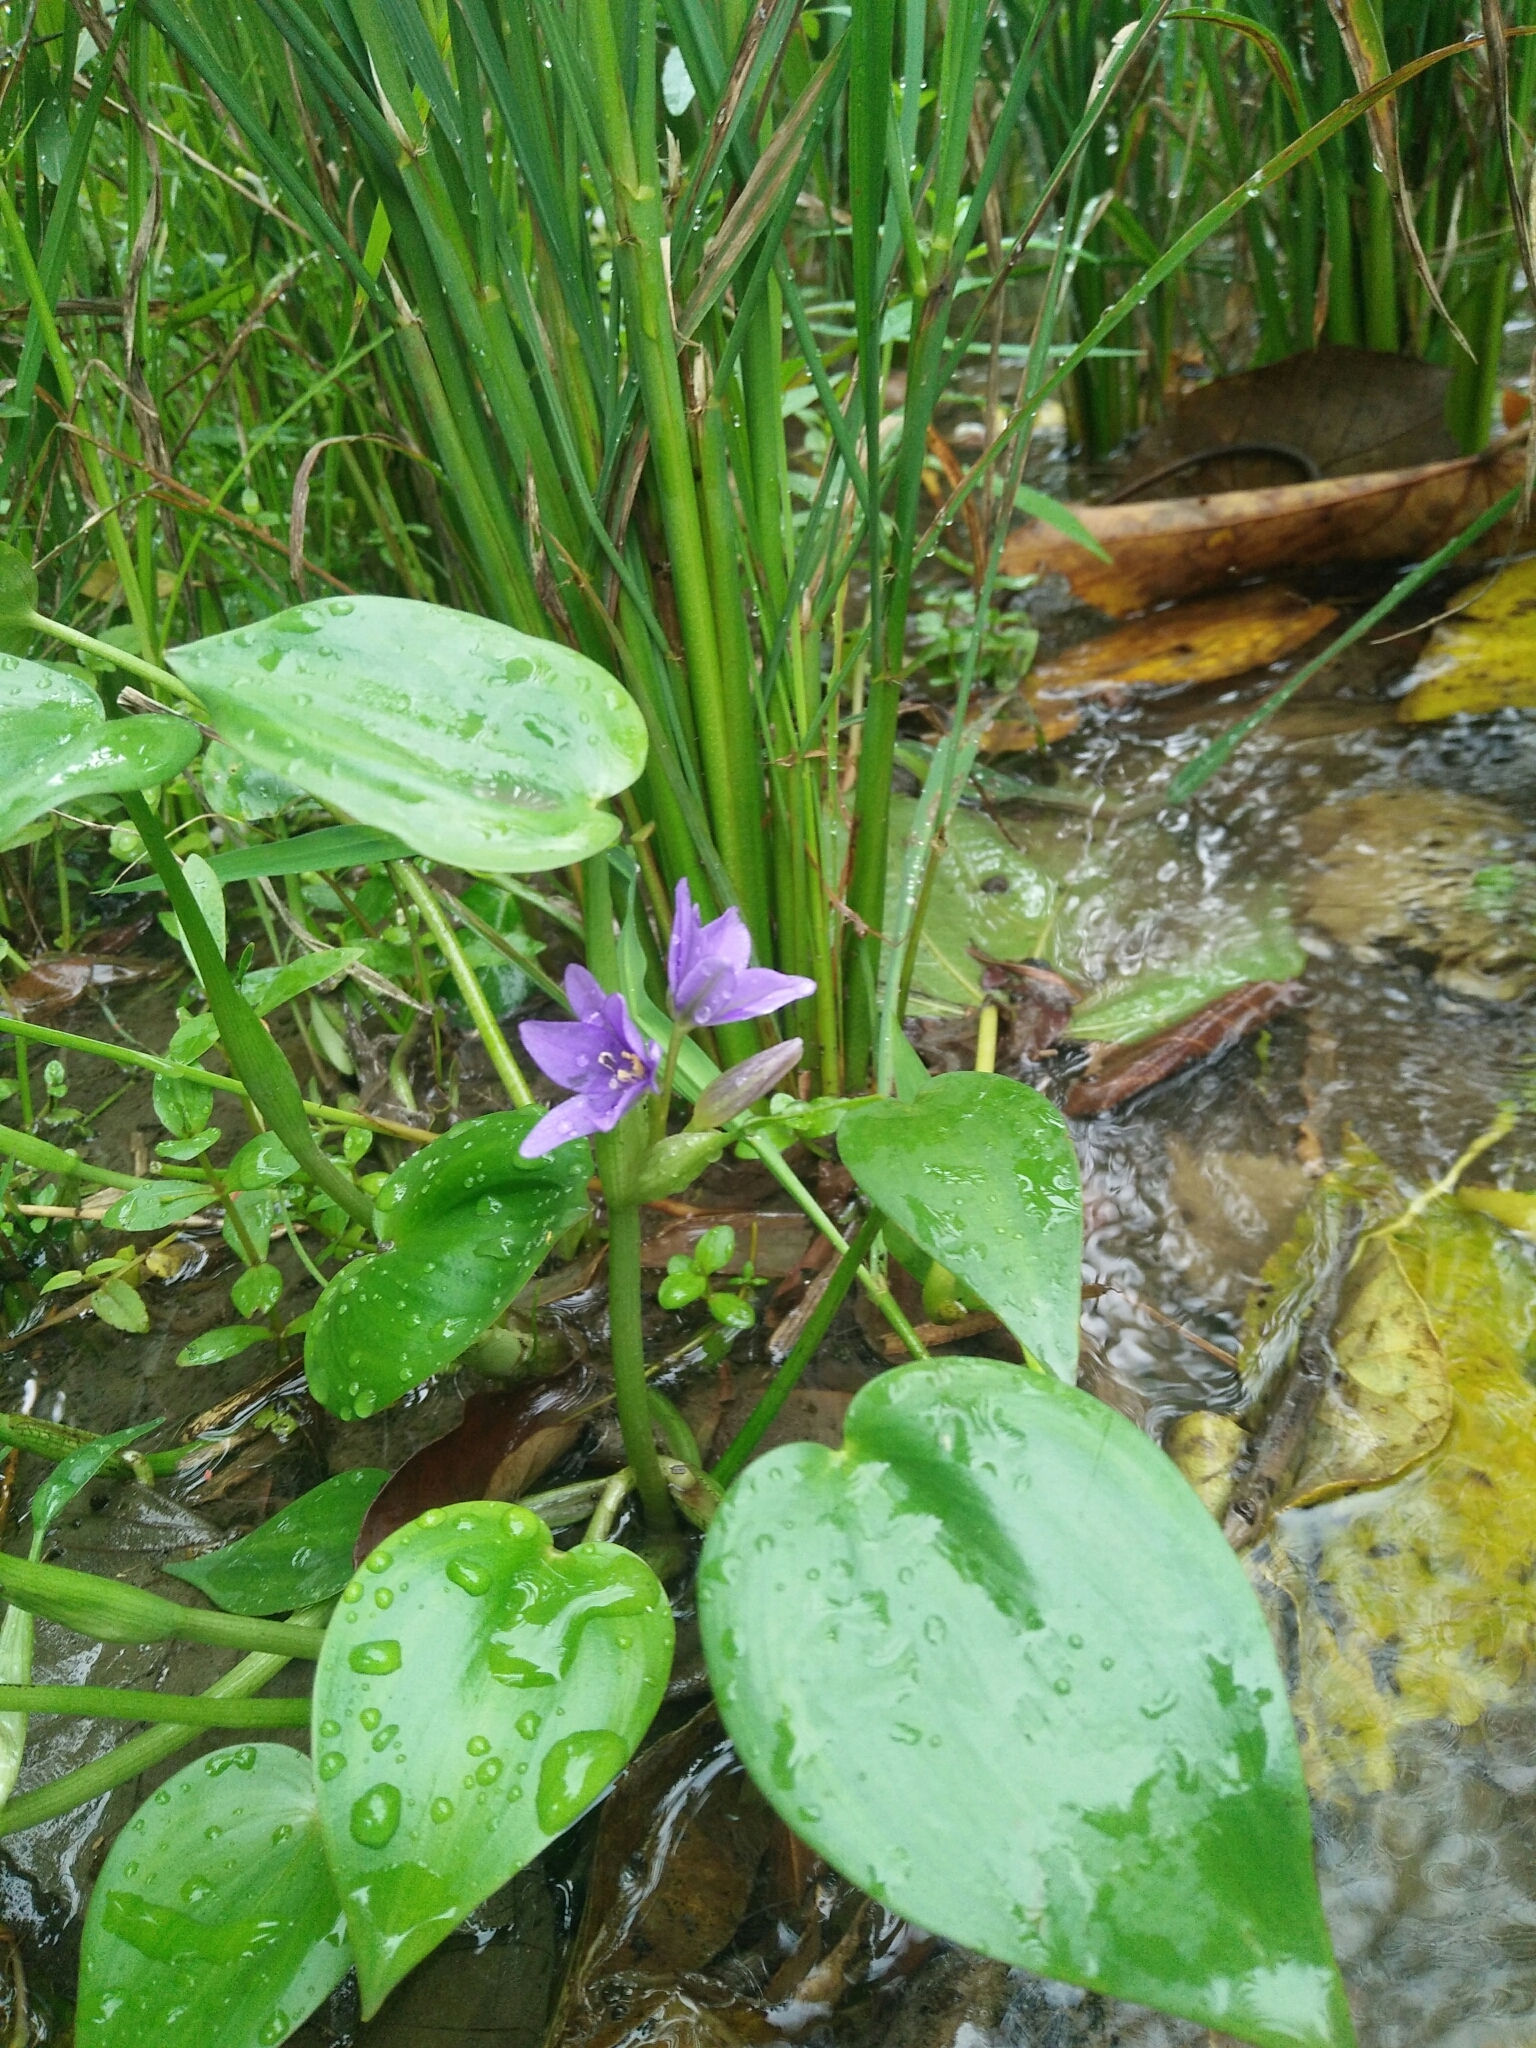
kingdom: Plantae
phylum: Tracheophyta
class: Liliopsida
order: Commelinales
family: Pontederiaceae
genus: Pontederia
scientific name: Pontederia vaginalis
